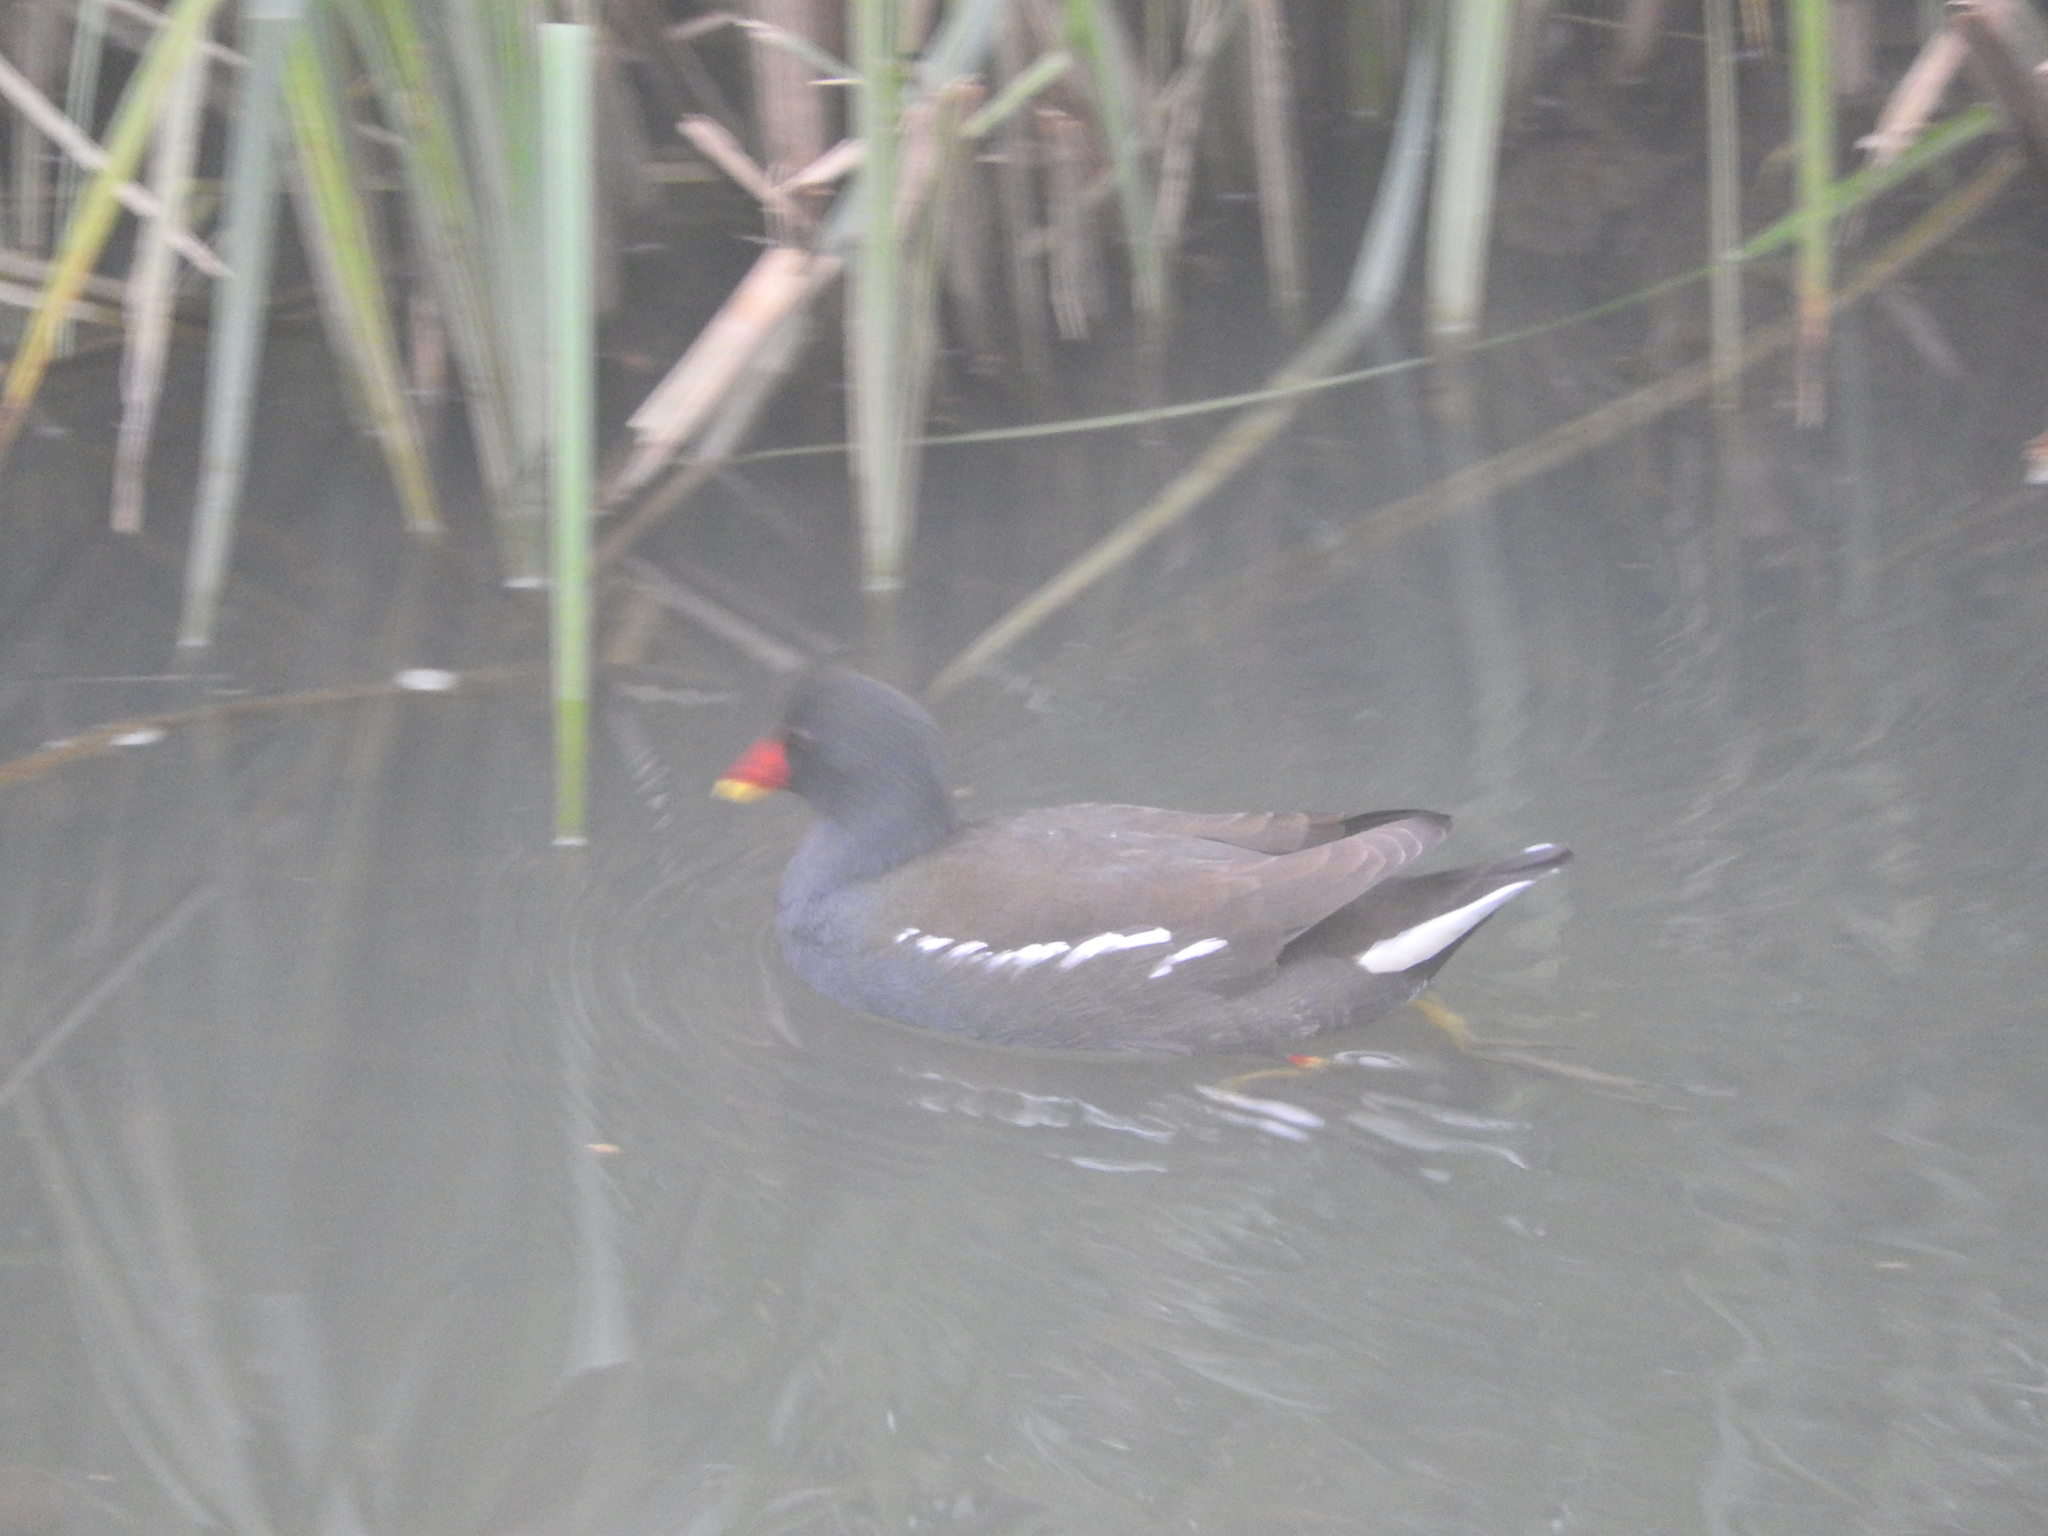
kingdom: Animalia
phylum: Chordata
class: Aves
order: Gruiformes
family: Rallidae
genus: Gallinula
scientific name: Gallinula chloropus
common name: Common moorhen
